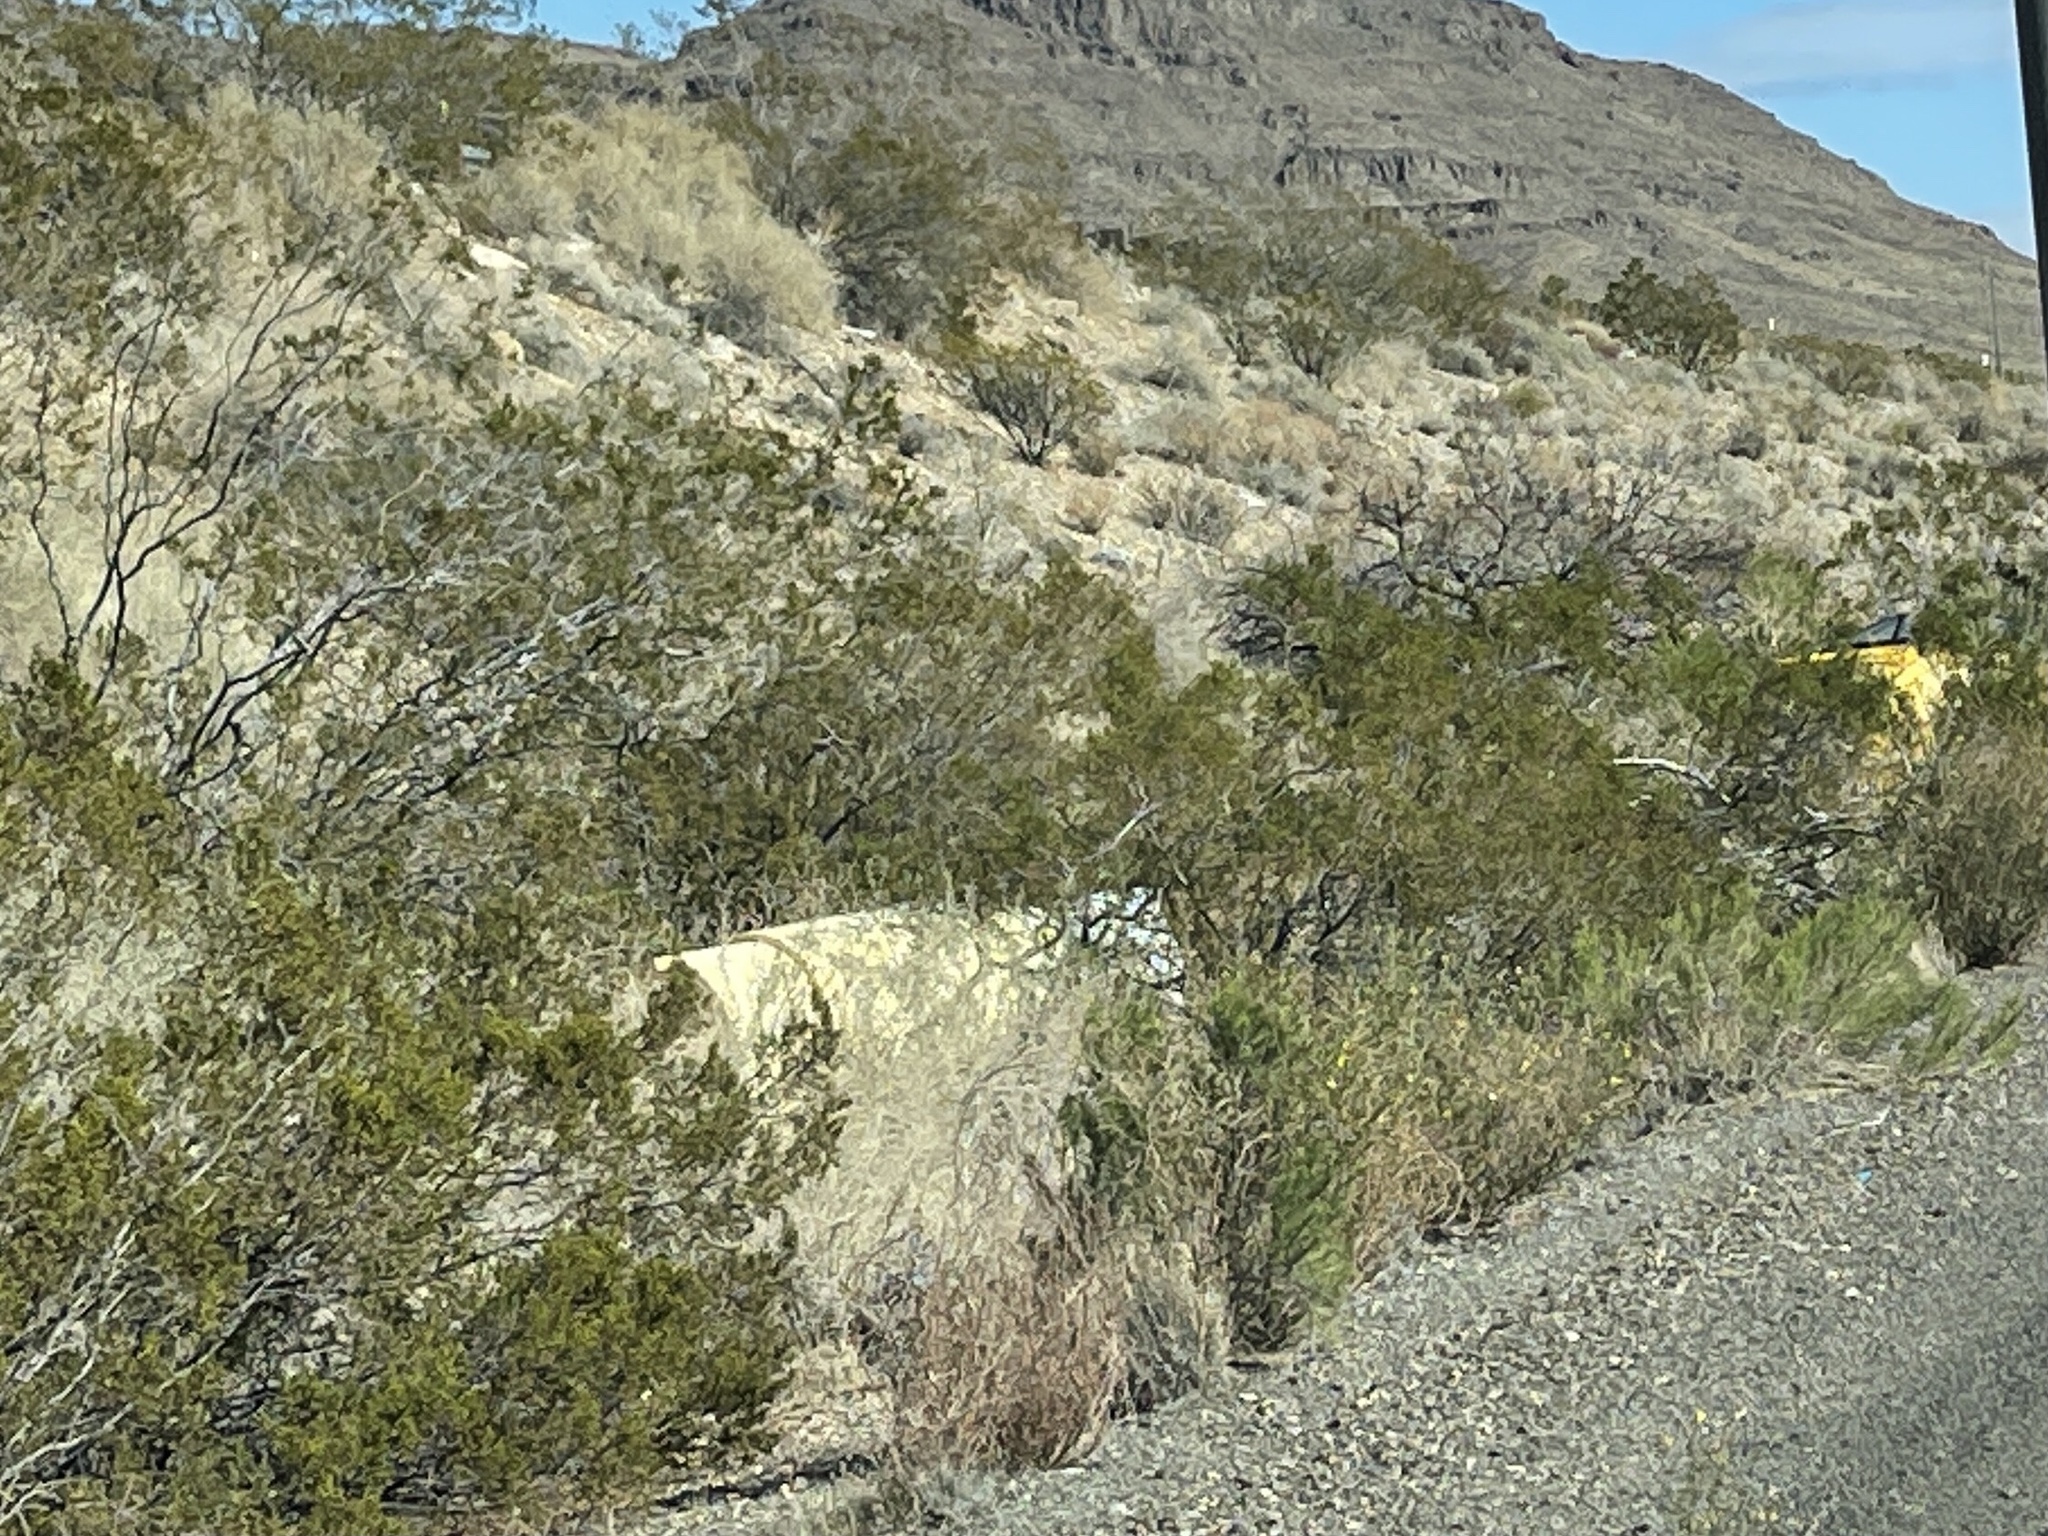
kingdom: Plantae
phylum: Tracheophyta
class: Magnoliopsida
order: Zygophyllales
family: Zygophyllaceae
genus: Larrea
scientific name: Larrea tridentata
